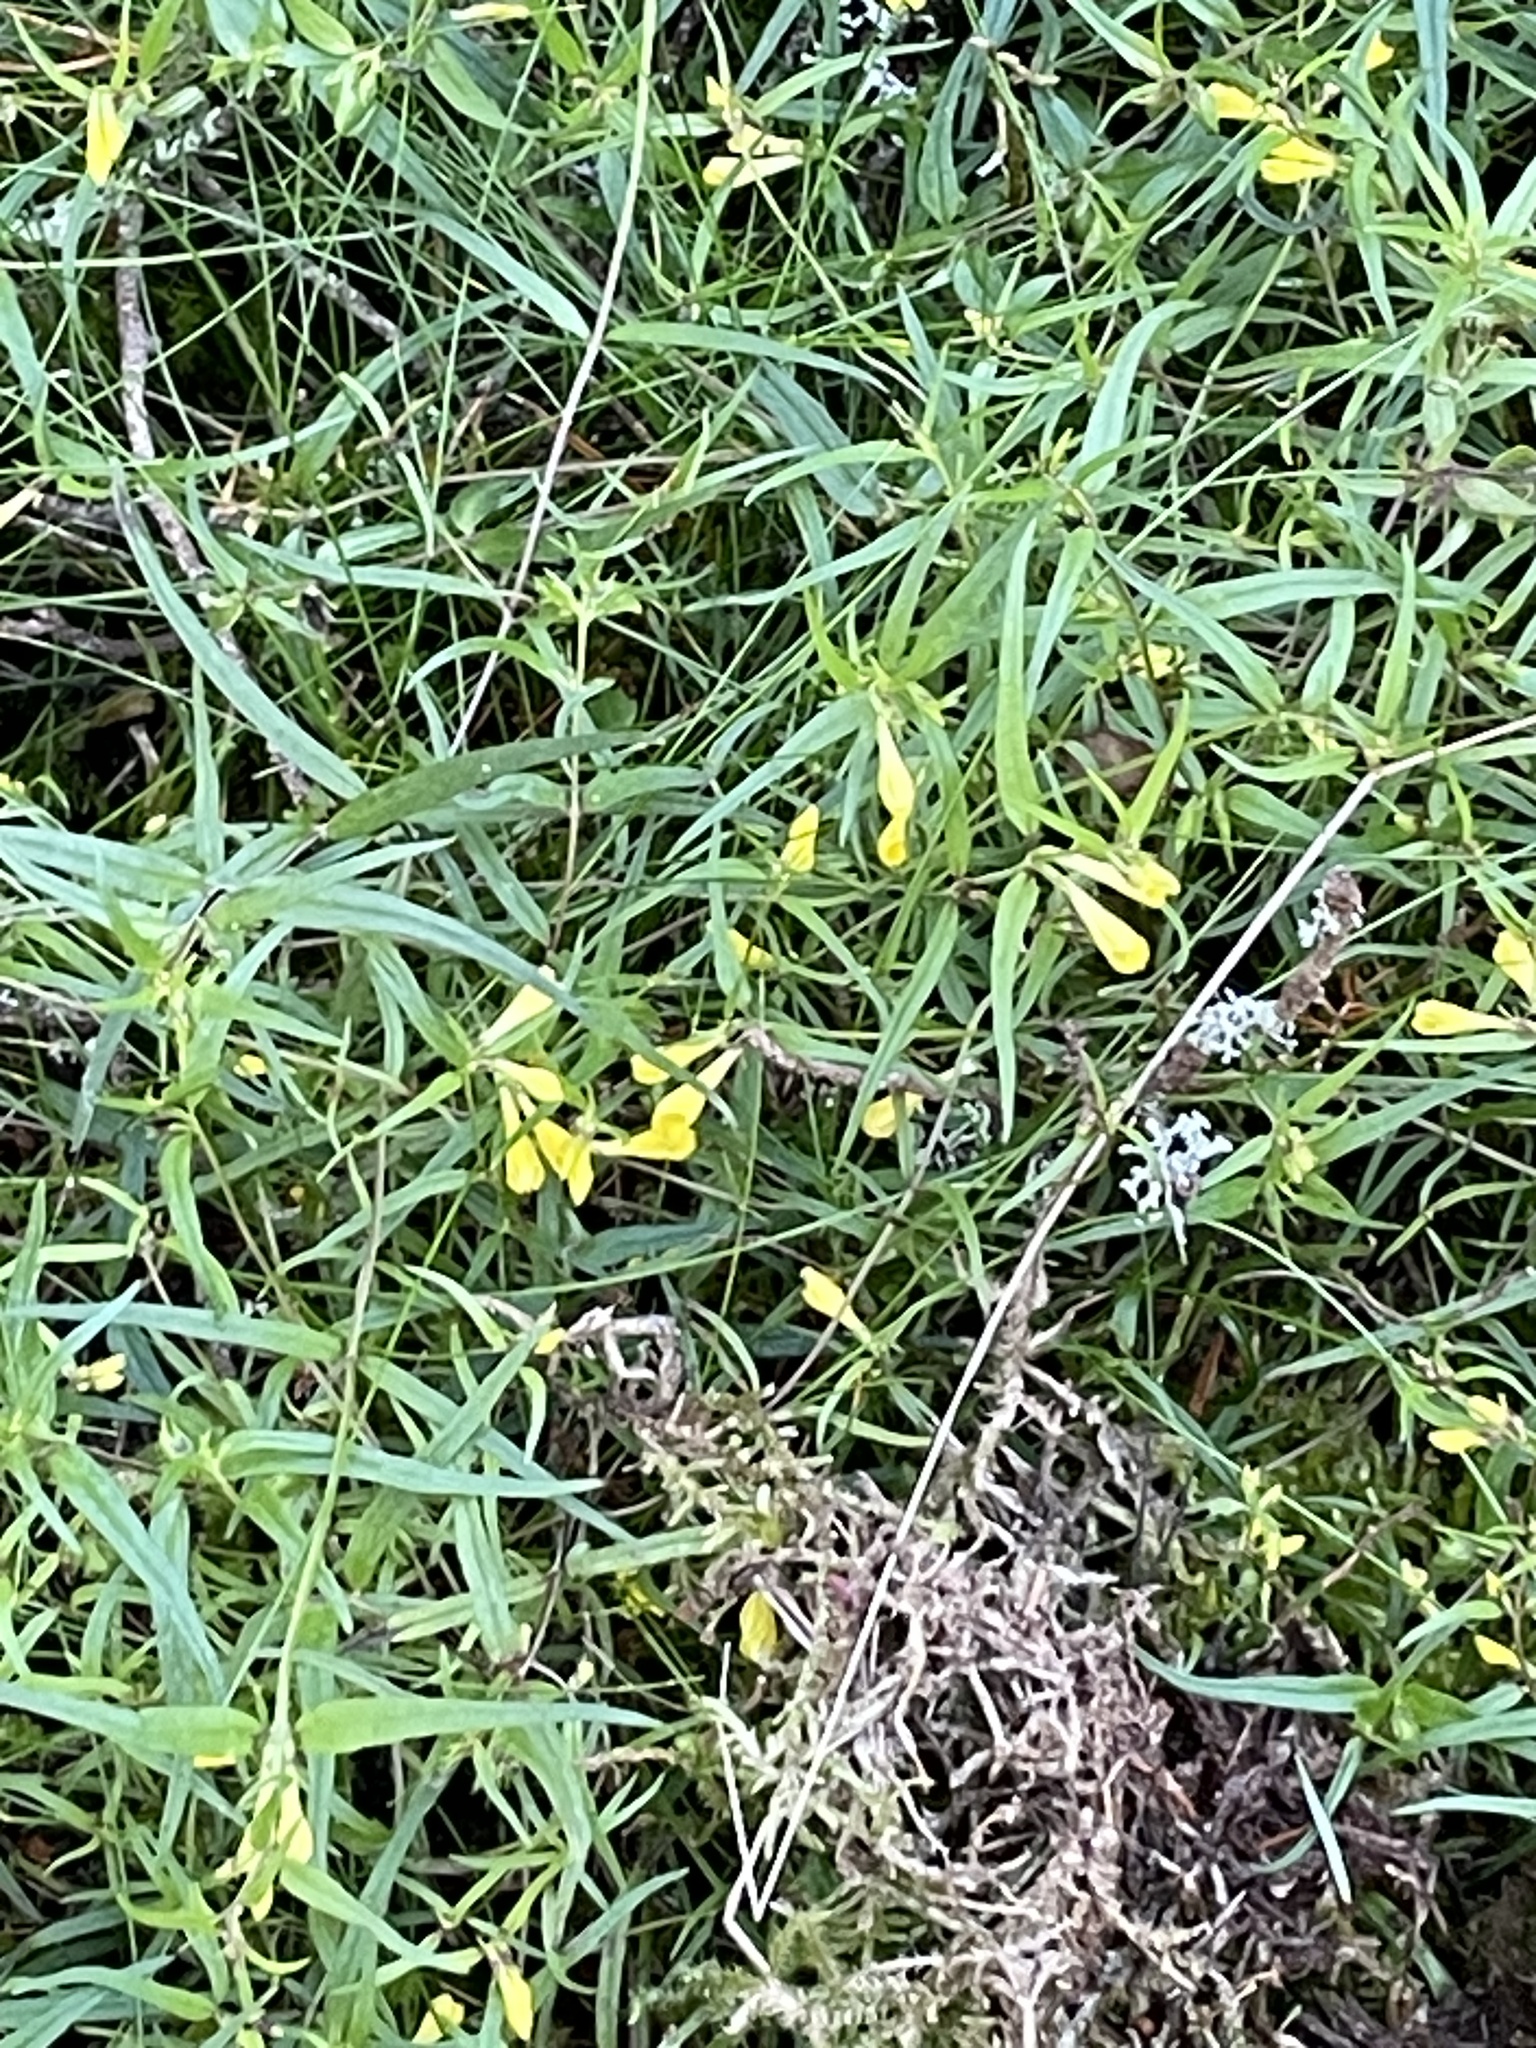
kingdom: Plantae
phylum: Tracheophyta
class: Magnoliopsida
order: Lamiales
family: Orobanchaceae
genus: Melampyrum
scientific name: Melampyrum pratense
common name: Common cow-wheat
